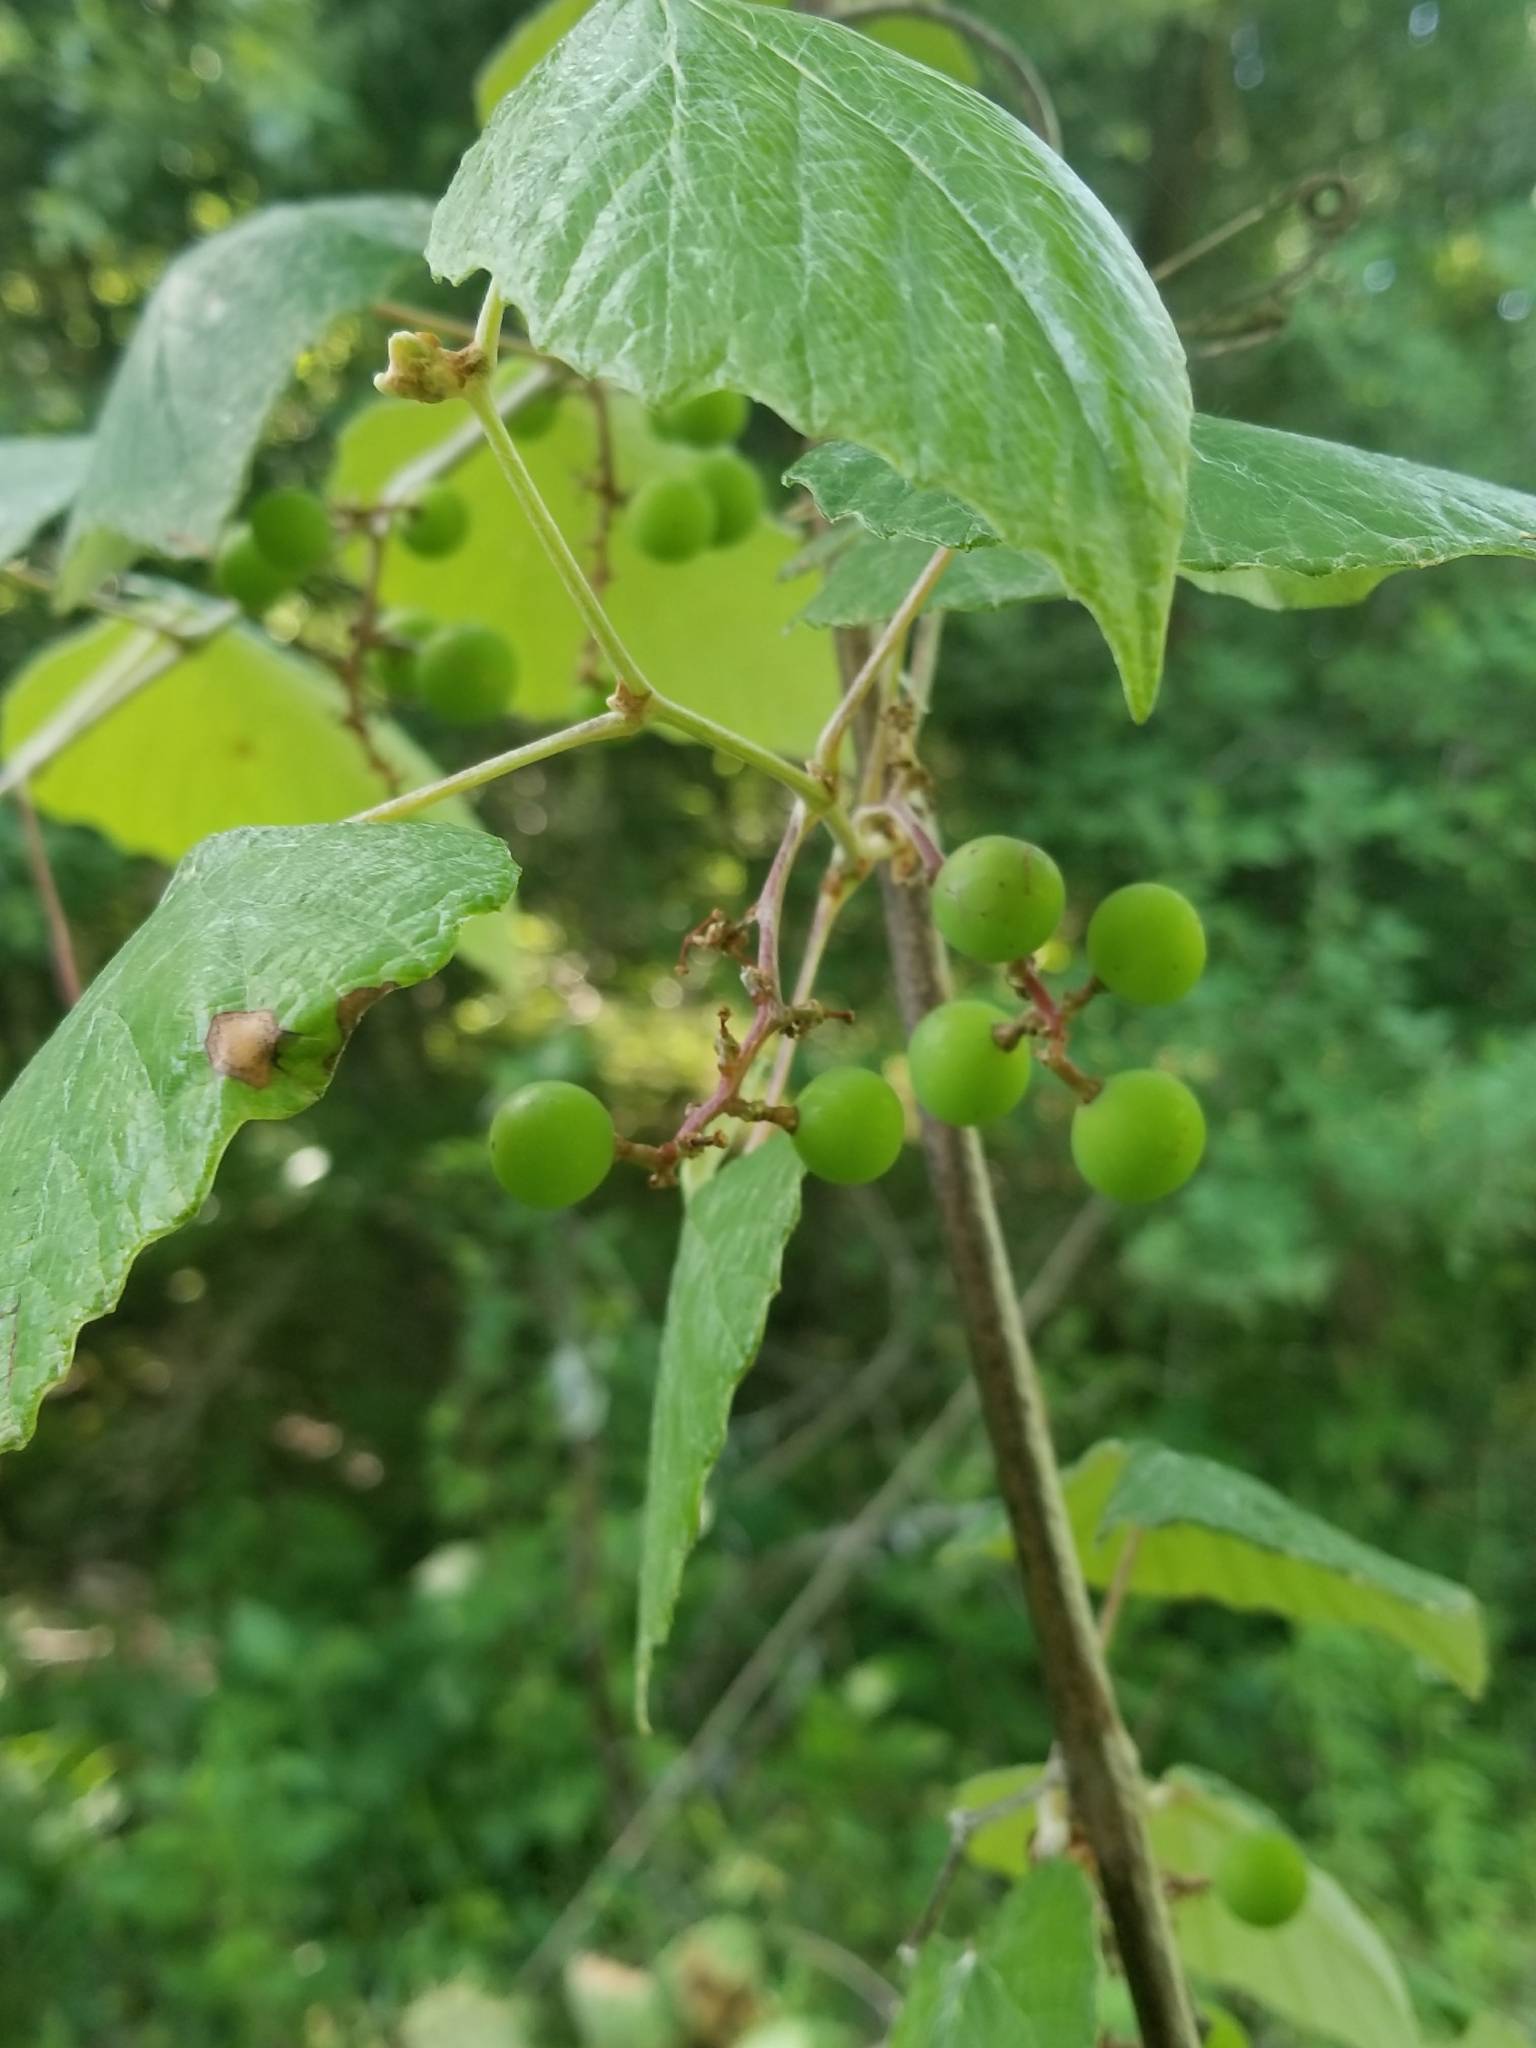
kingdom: Plantae
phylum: Tracheophyta
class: Magnoliopsida
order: Vitales
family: Vitaceae
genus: Vitis
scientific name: Vitis mustangensis
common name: Mustang grape
